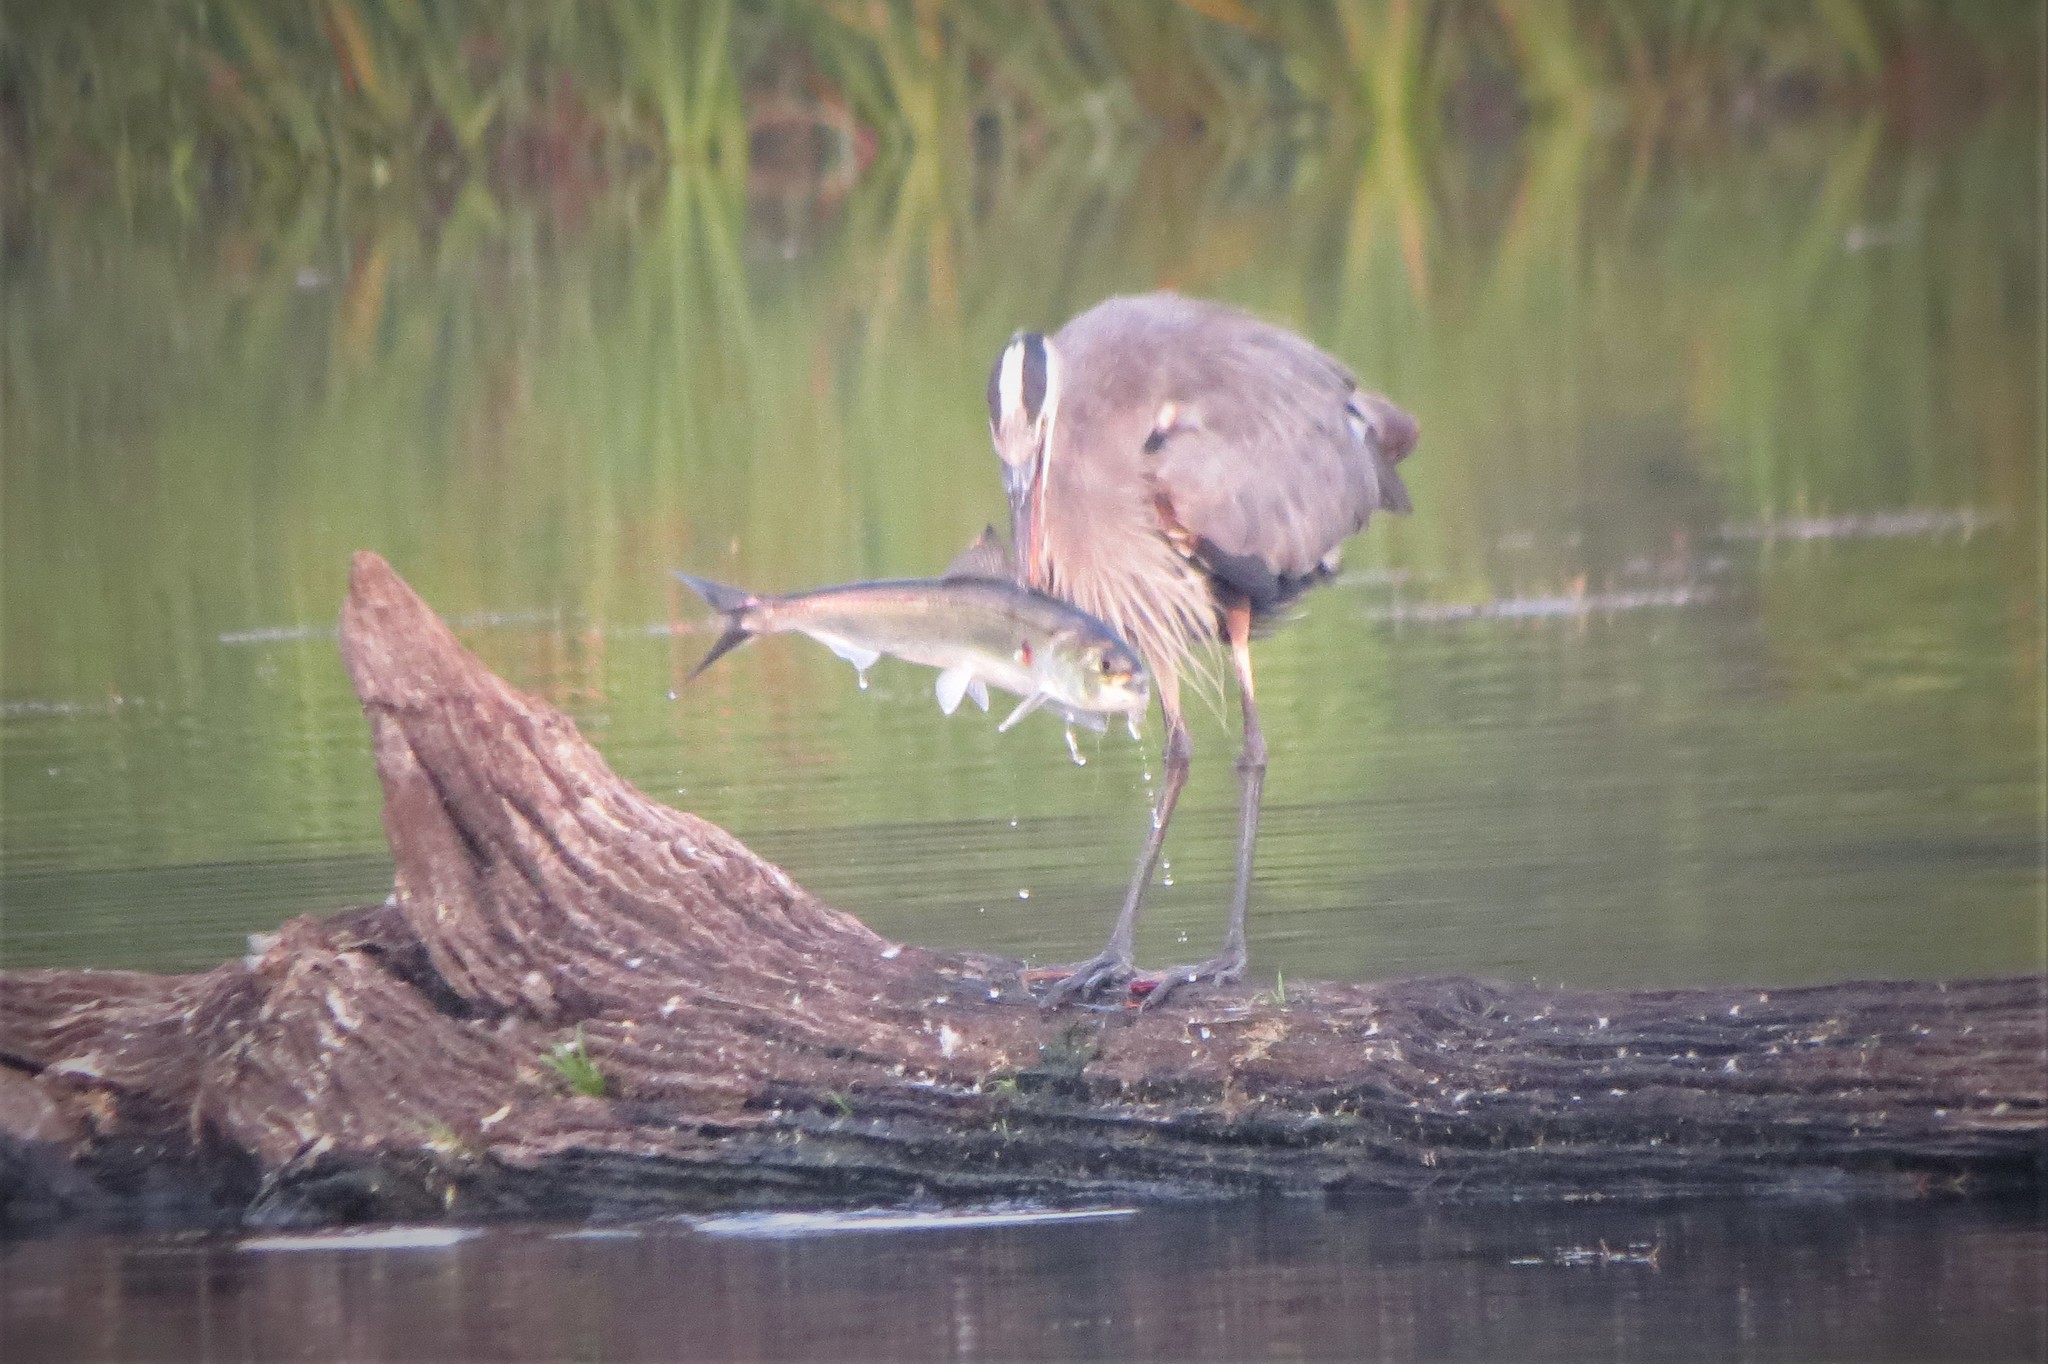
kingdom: Animalia
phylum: Chordata
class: Aves
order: Pelecaniformes
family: Ardeidae
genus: Ardea
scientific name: Ardea herodias
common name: Great blue heron
